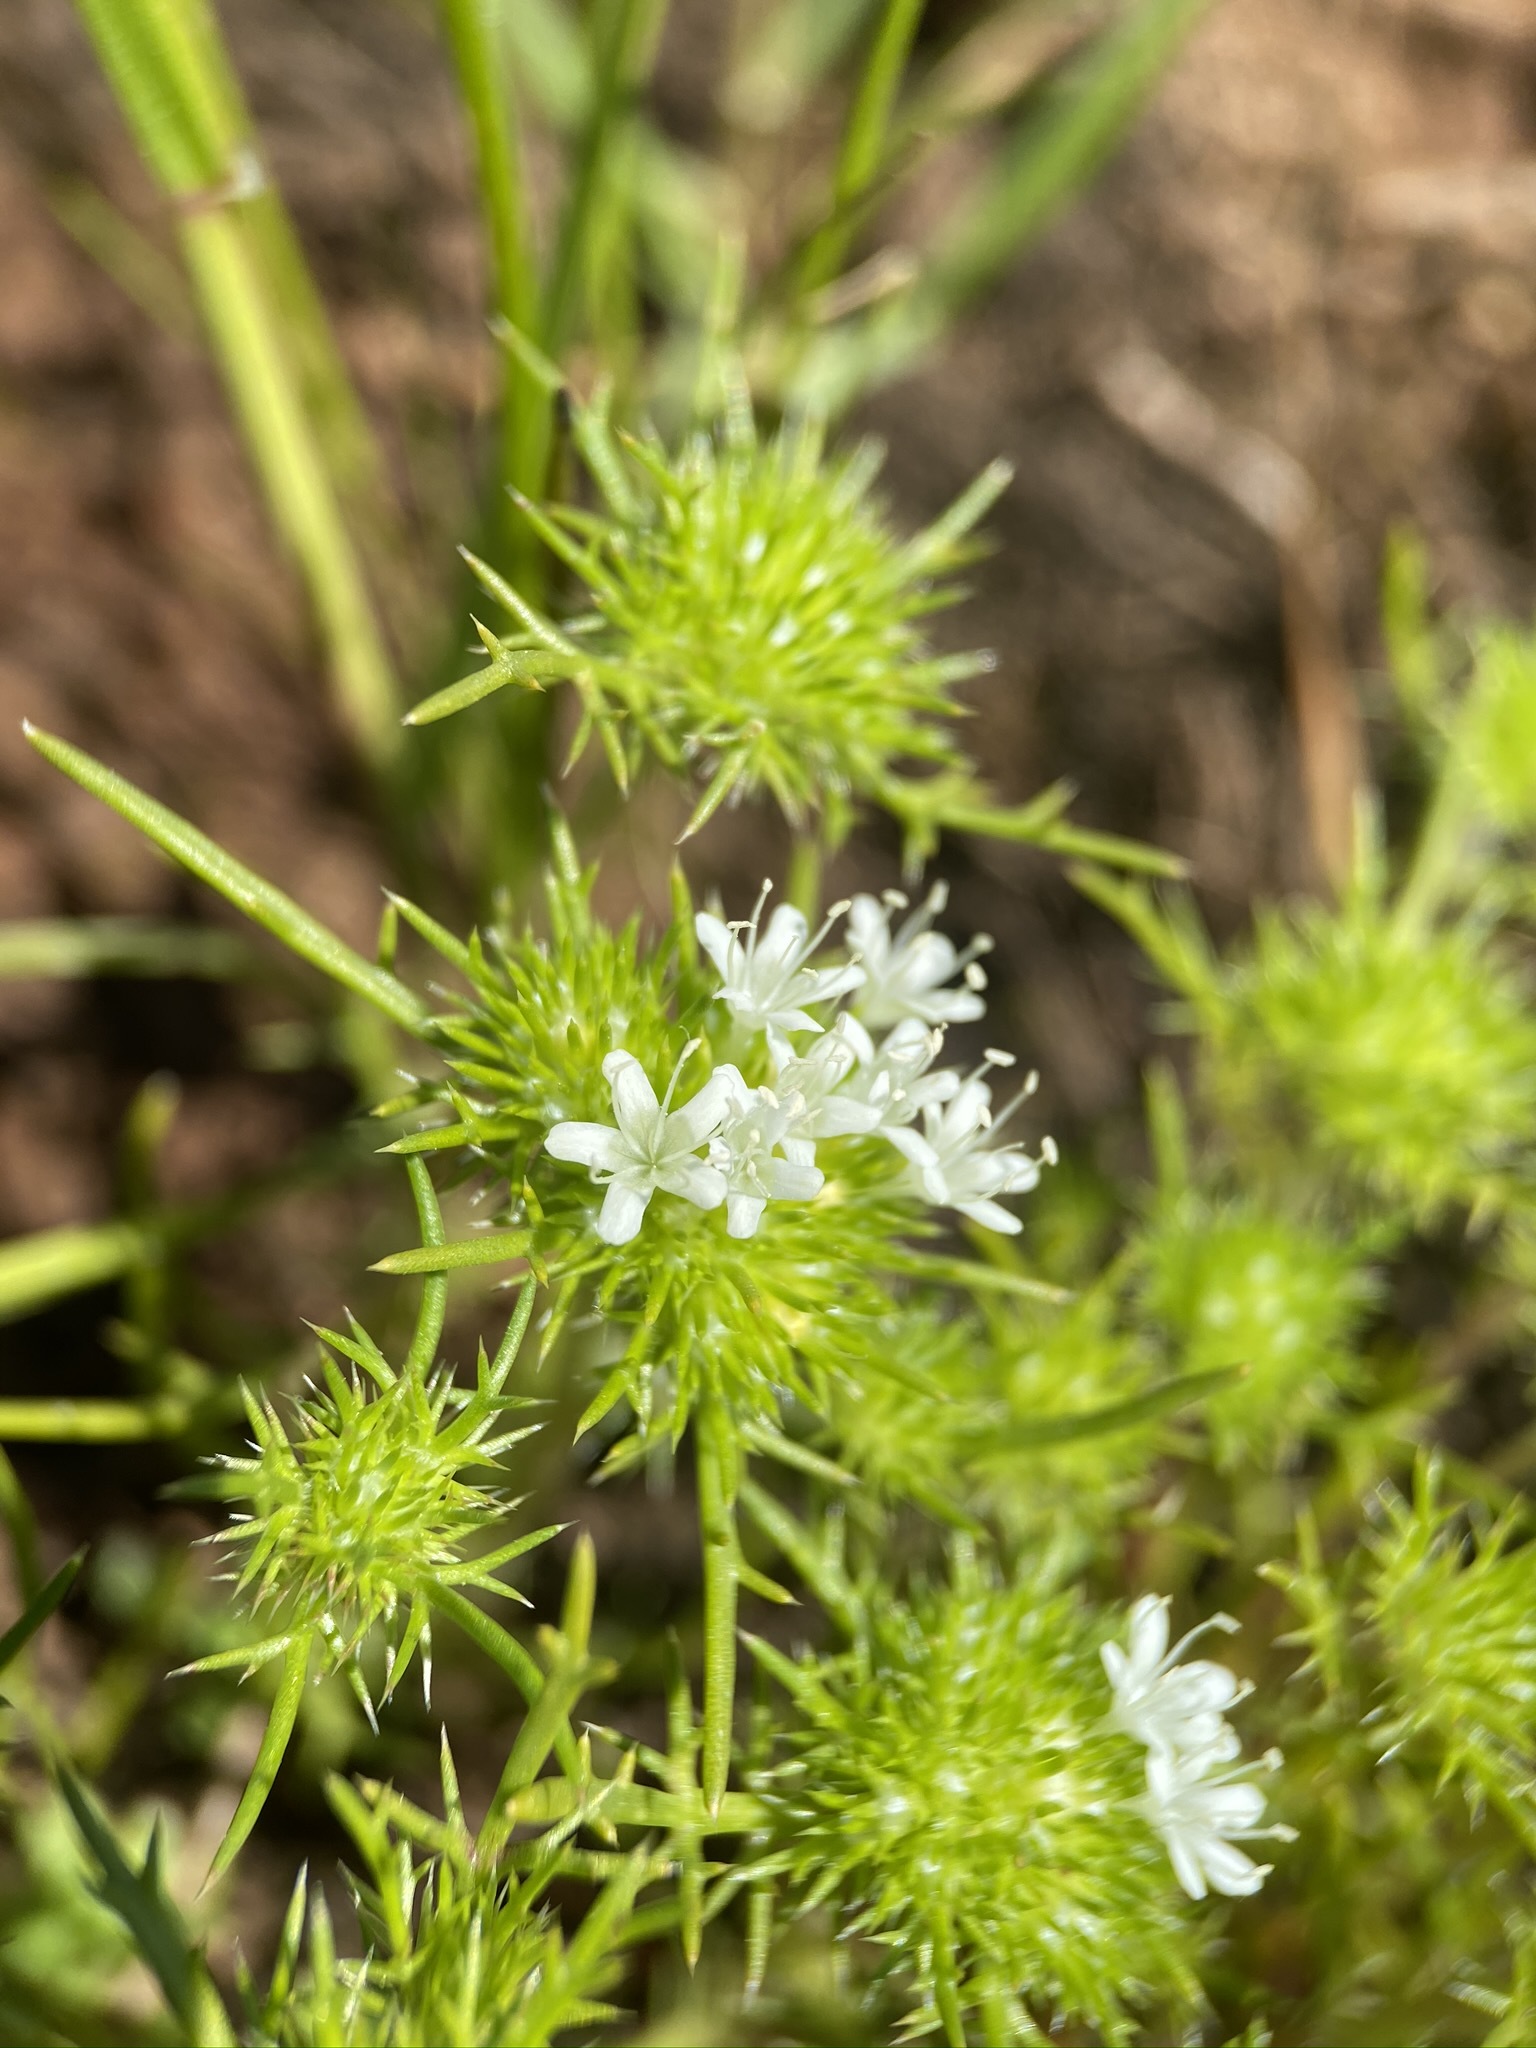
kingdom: Plantae
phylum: Tracheophyta
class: Magnoliopsida
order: Ericales
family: Polemoniaceae
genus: Navarretia
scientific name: Navarretia leucocephala
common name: White-flowered navarretia
